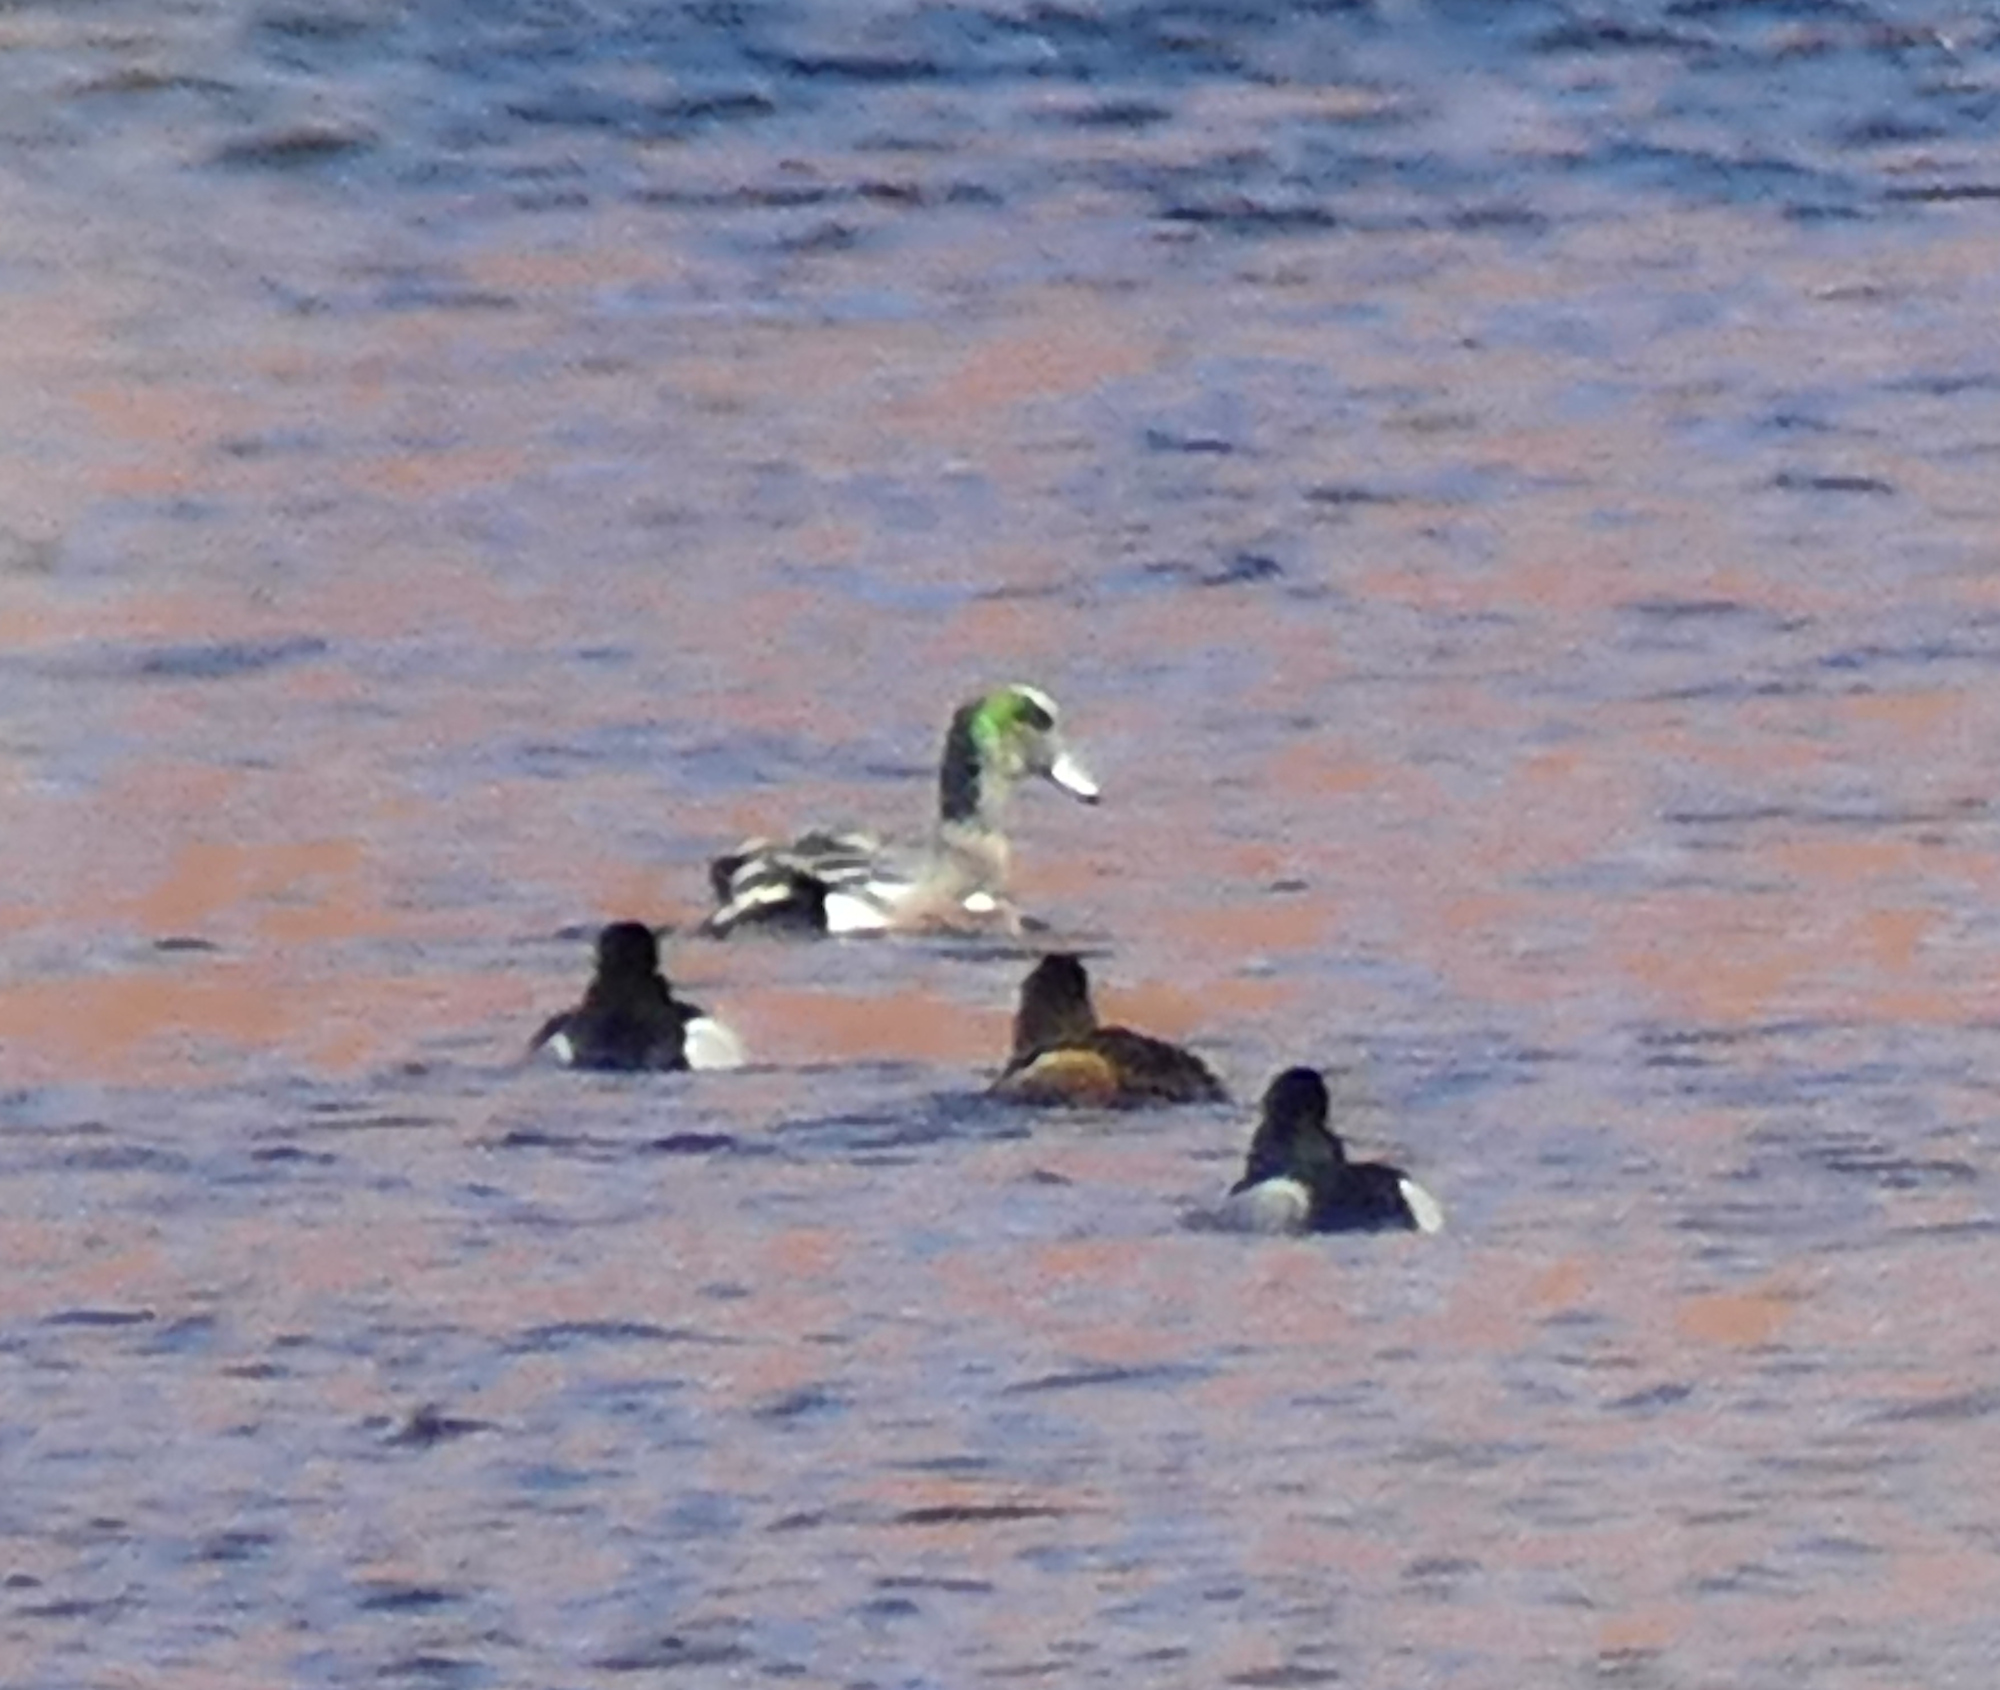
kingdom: Animalia
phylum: Chordata
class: Aves
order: Anseriformes
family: Anatidae
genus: Mareca
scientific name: Mareca americana
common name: American wigeon
